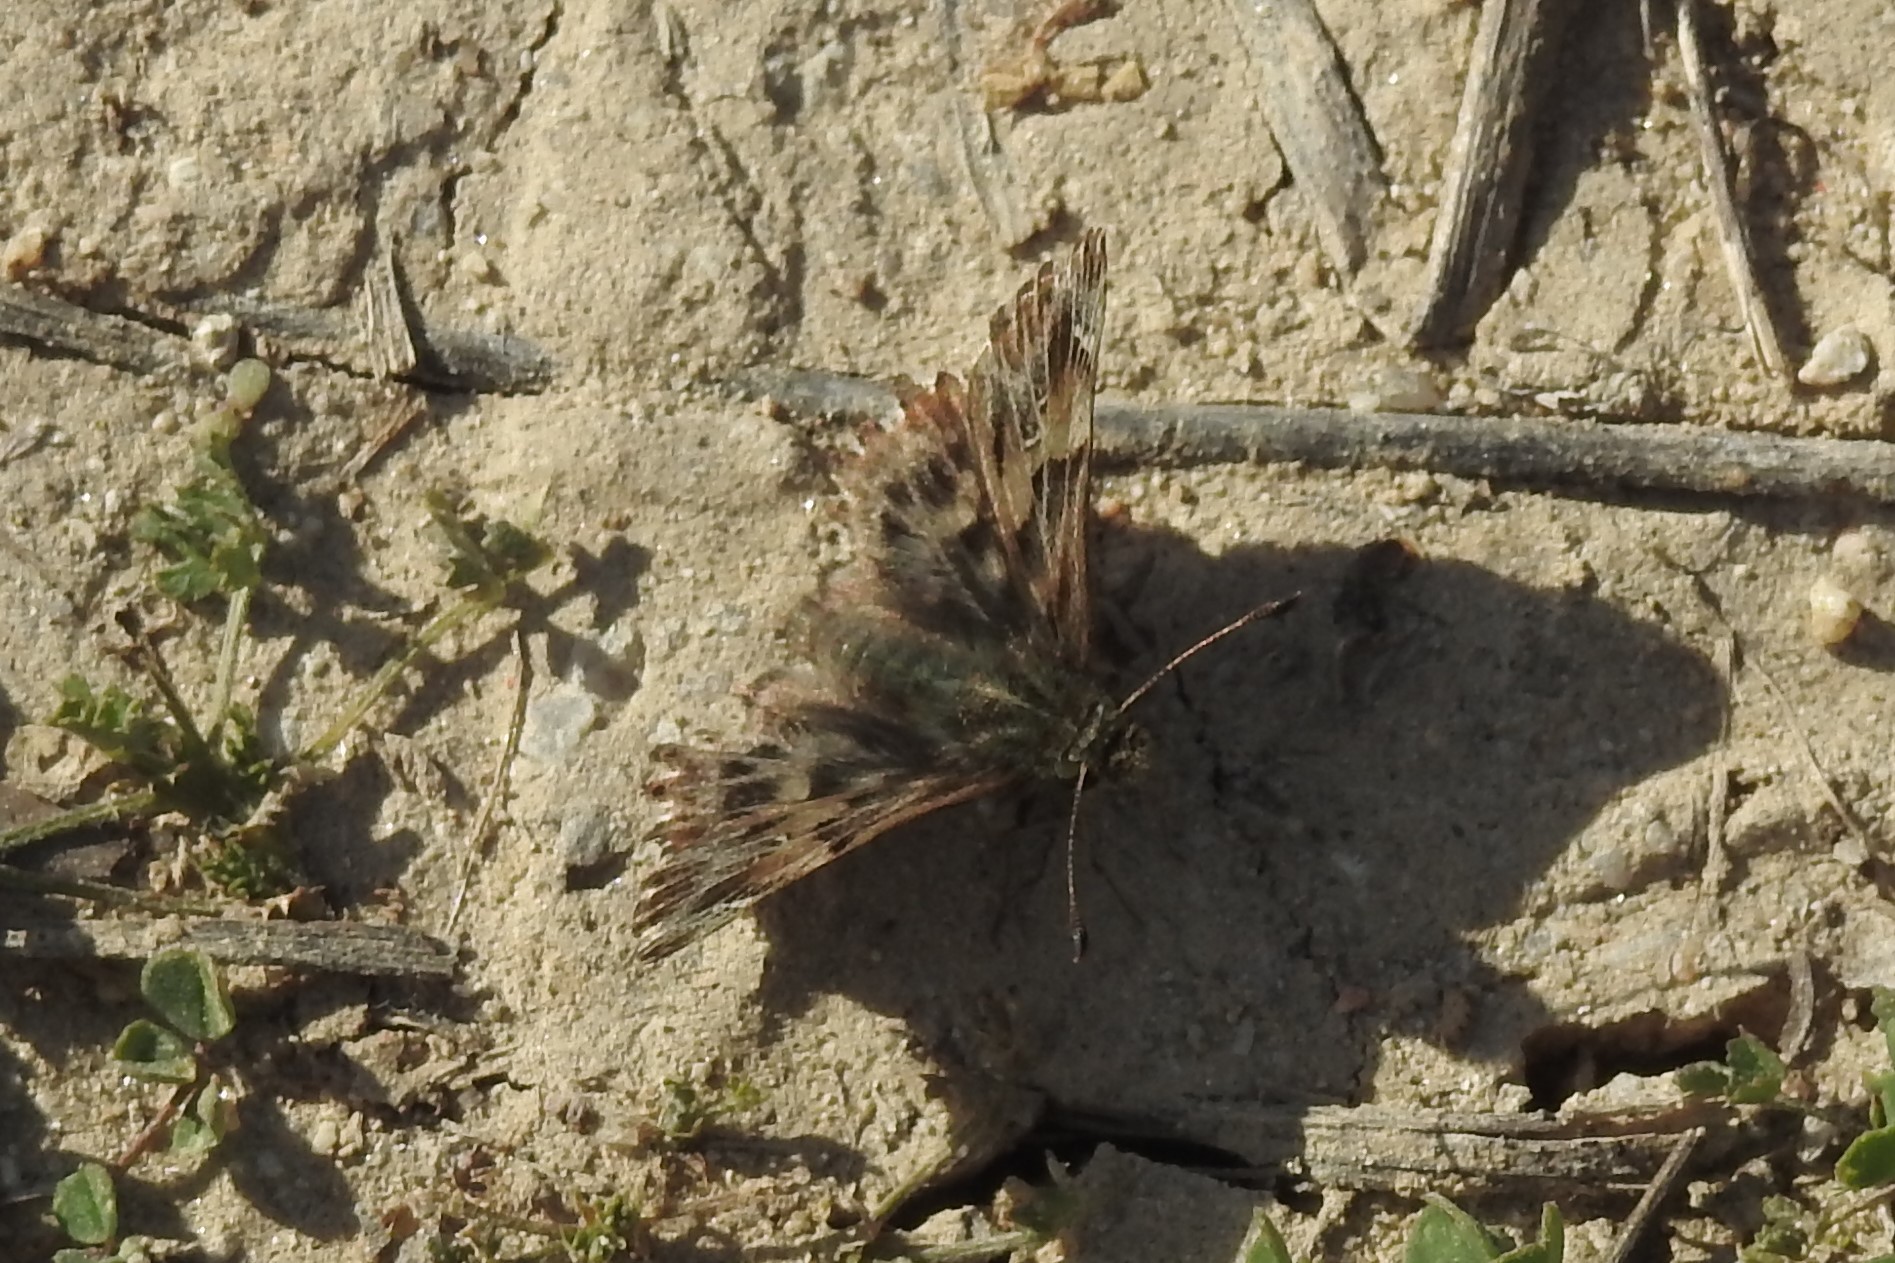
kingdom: Animalia
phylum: Arthropoda
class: Insecta
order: Lepidoptera
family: Hesperiidae
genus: Carcharodus
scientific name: Carcharodus alceae
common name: Mallow skipper
